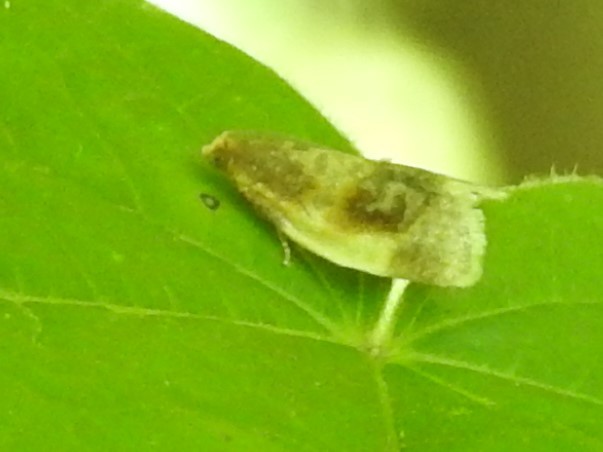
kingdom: Animalia
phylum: Arthropoda
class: Insecta
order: Lepidoptera
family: Tortricidae
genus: Clepsis
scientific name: Clepsis melaleucanus
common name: American apple tortrix
